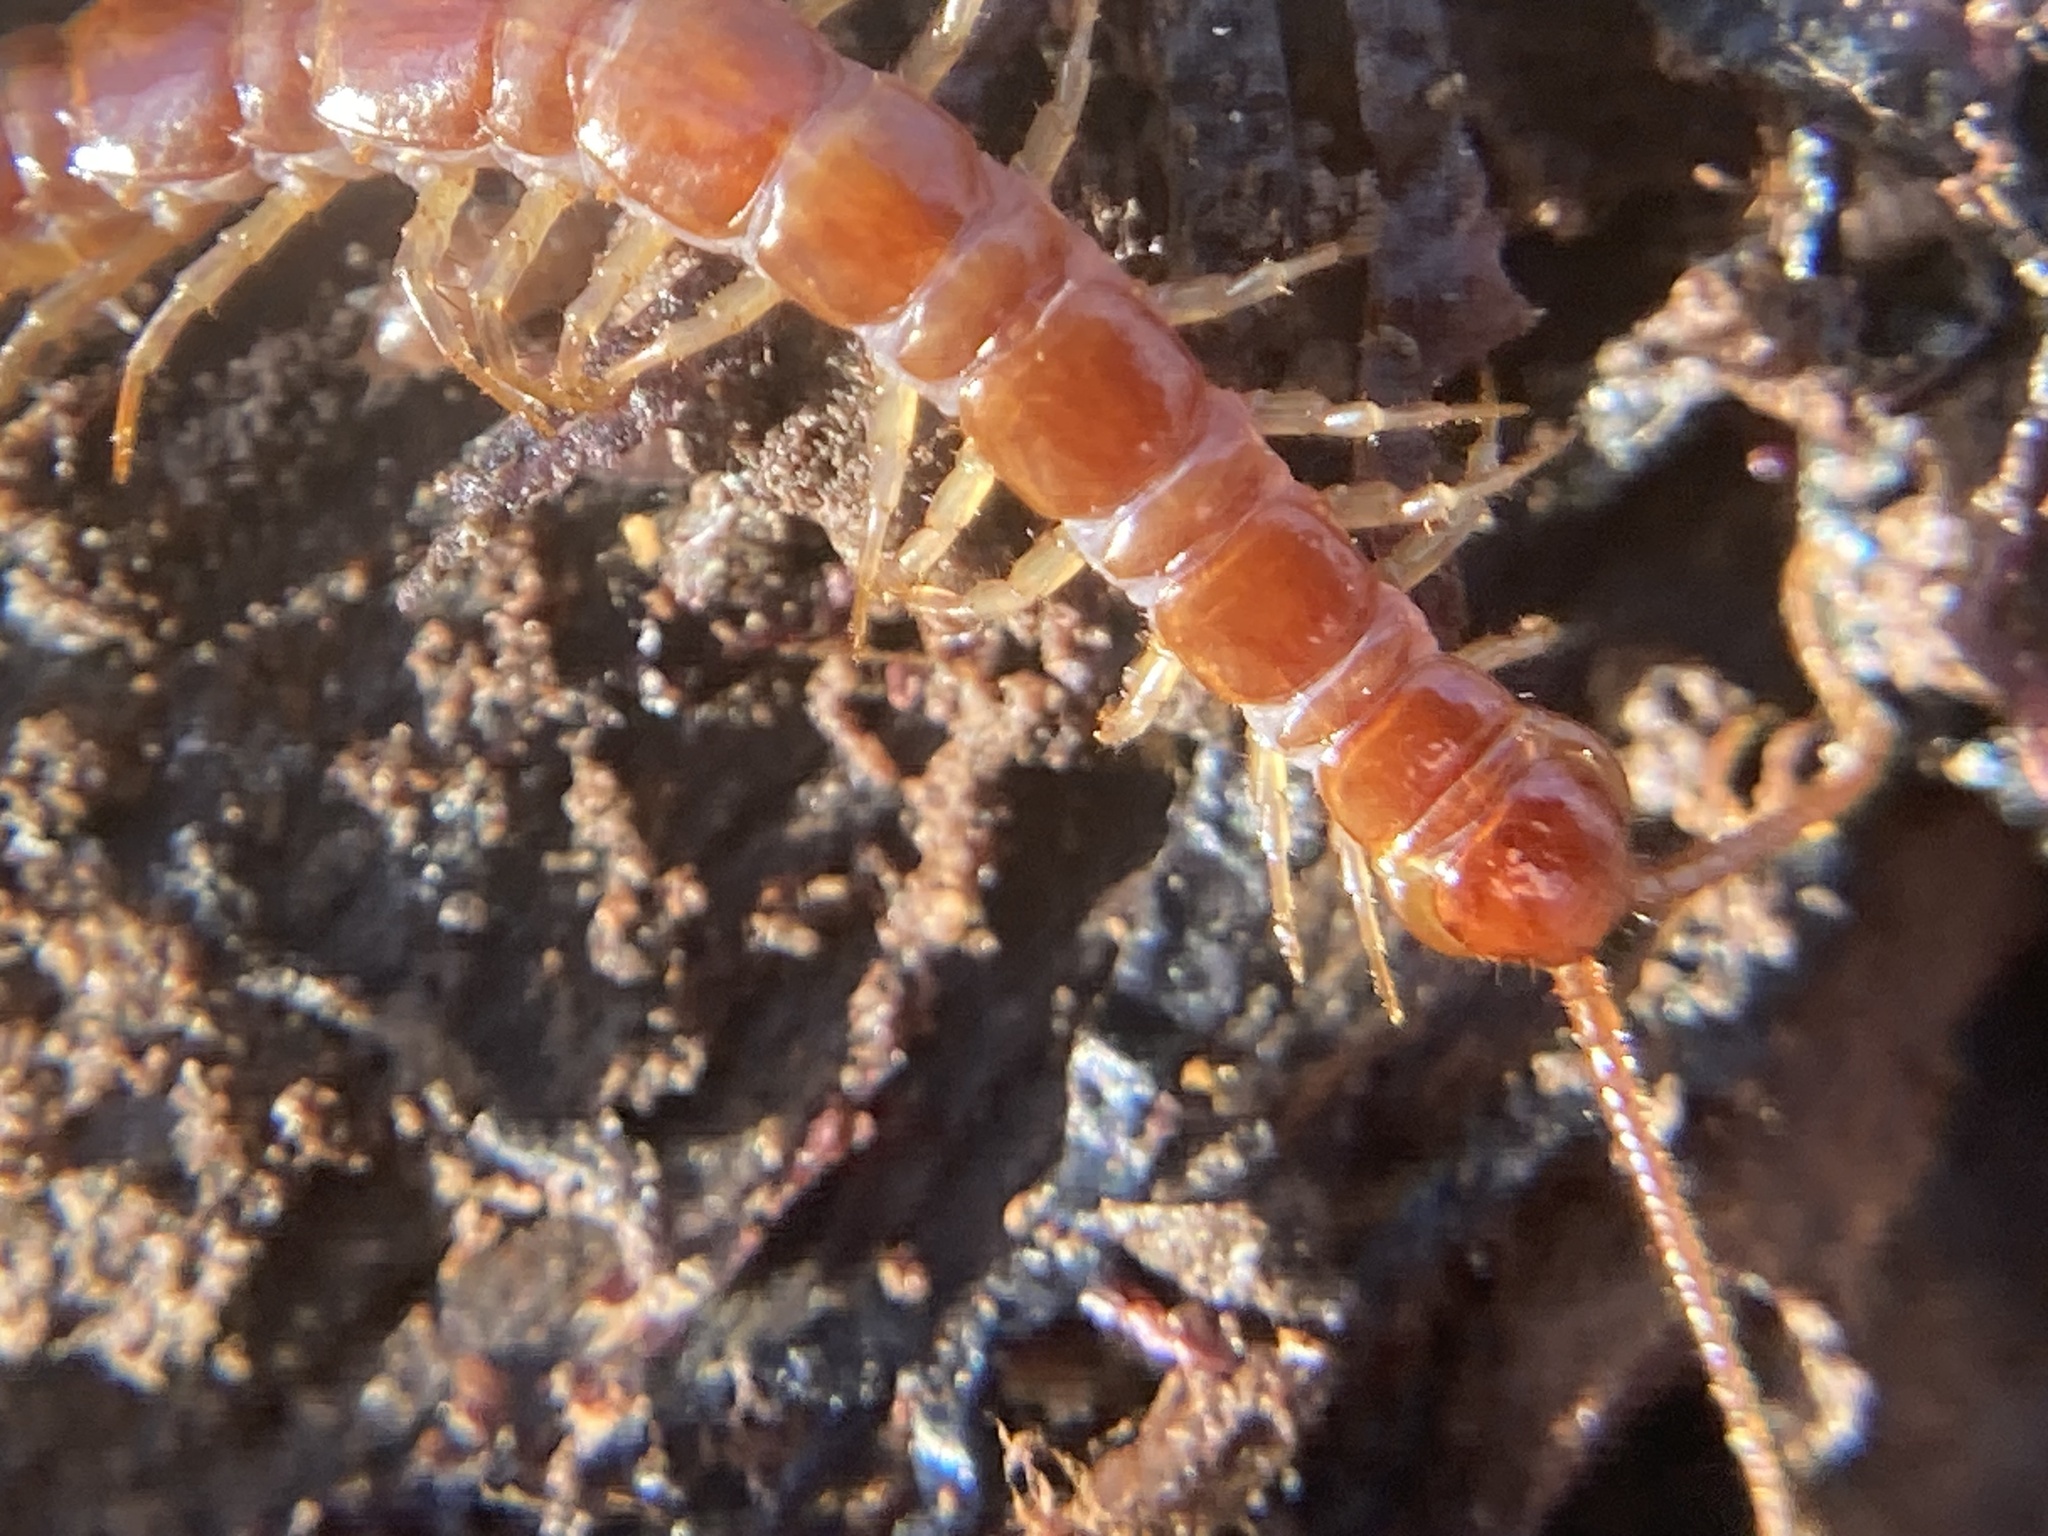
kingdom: Animalia
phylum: Arthropoda
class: Chilopoda
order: Lithobiomorpha
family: Lithobiidae
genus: Lithobius
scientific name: Lithobius forficatus
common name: Centipede
